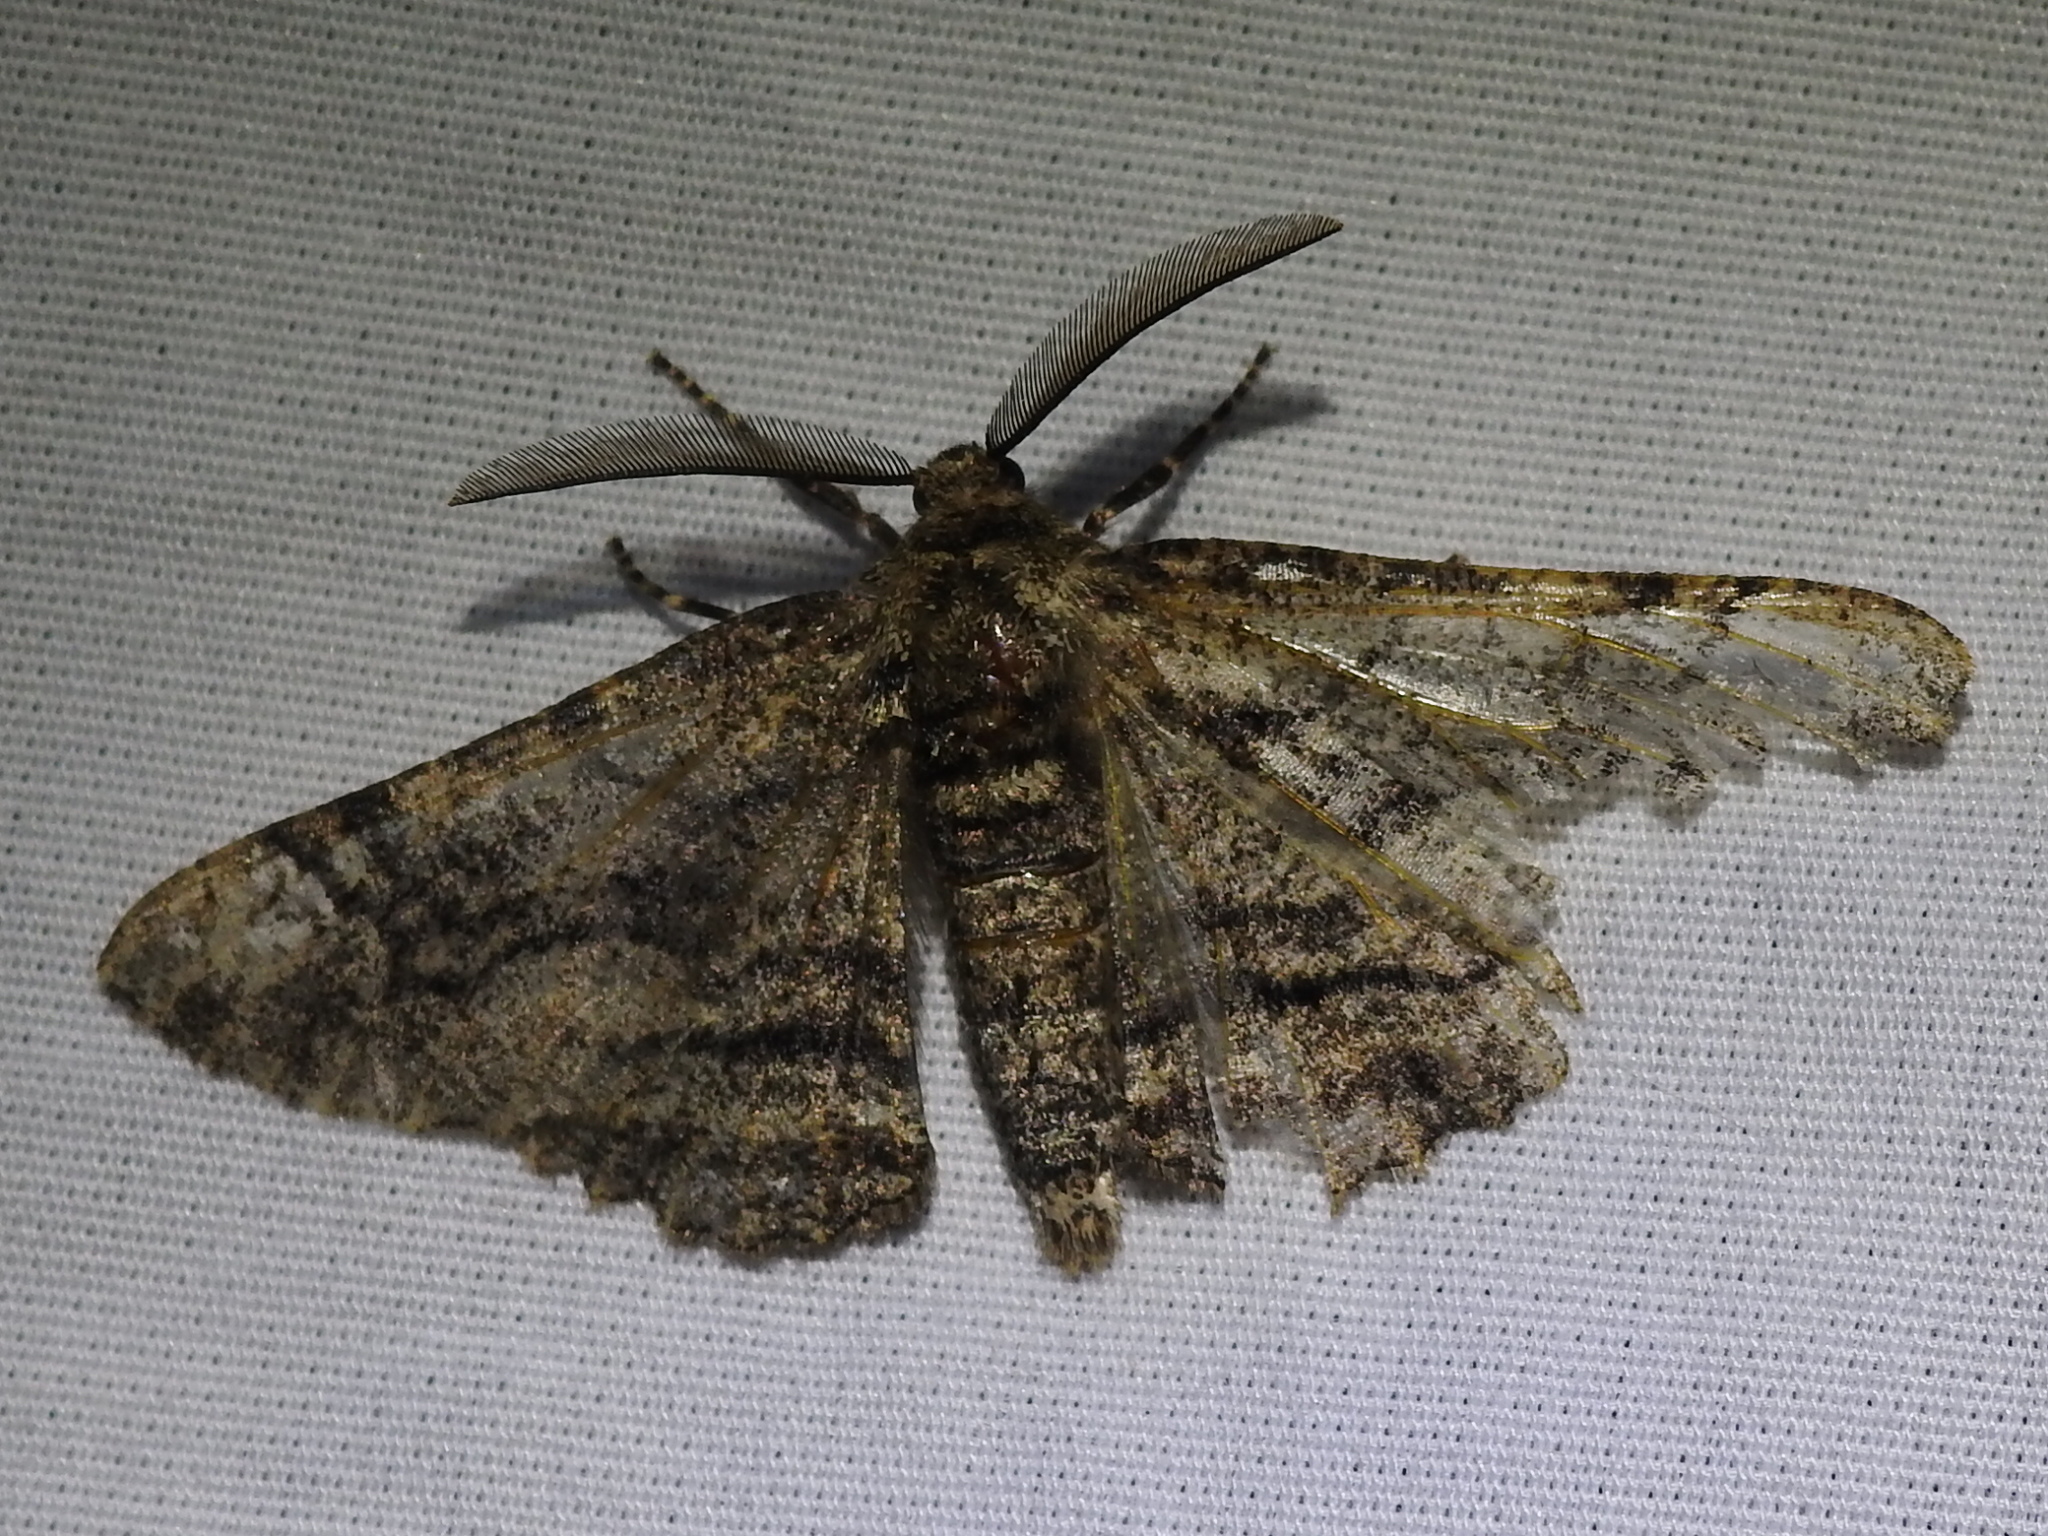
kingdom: Animalia
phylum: Arthropoda
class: Insecta
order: Lepidoptera
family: Geometridae
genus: Phaeoura
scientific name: Phaeoura quernaria
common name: Oak beauty
